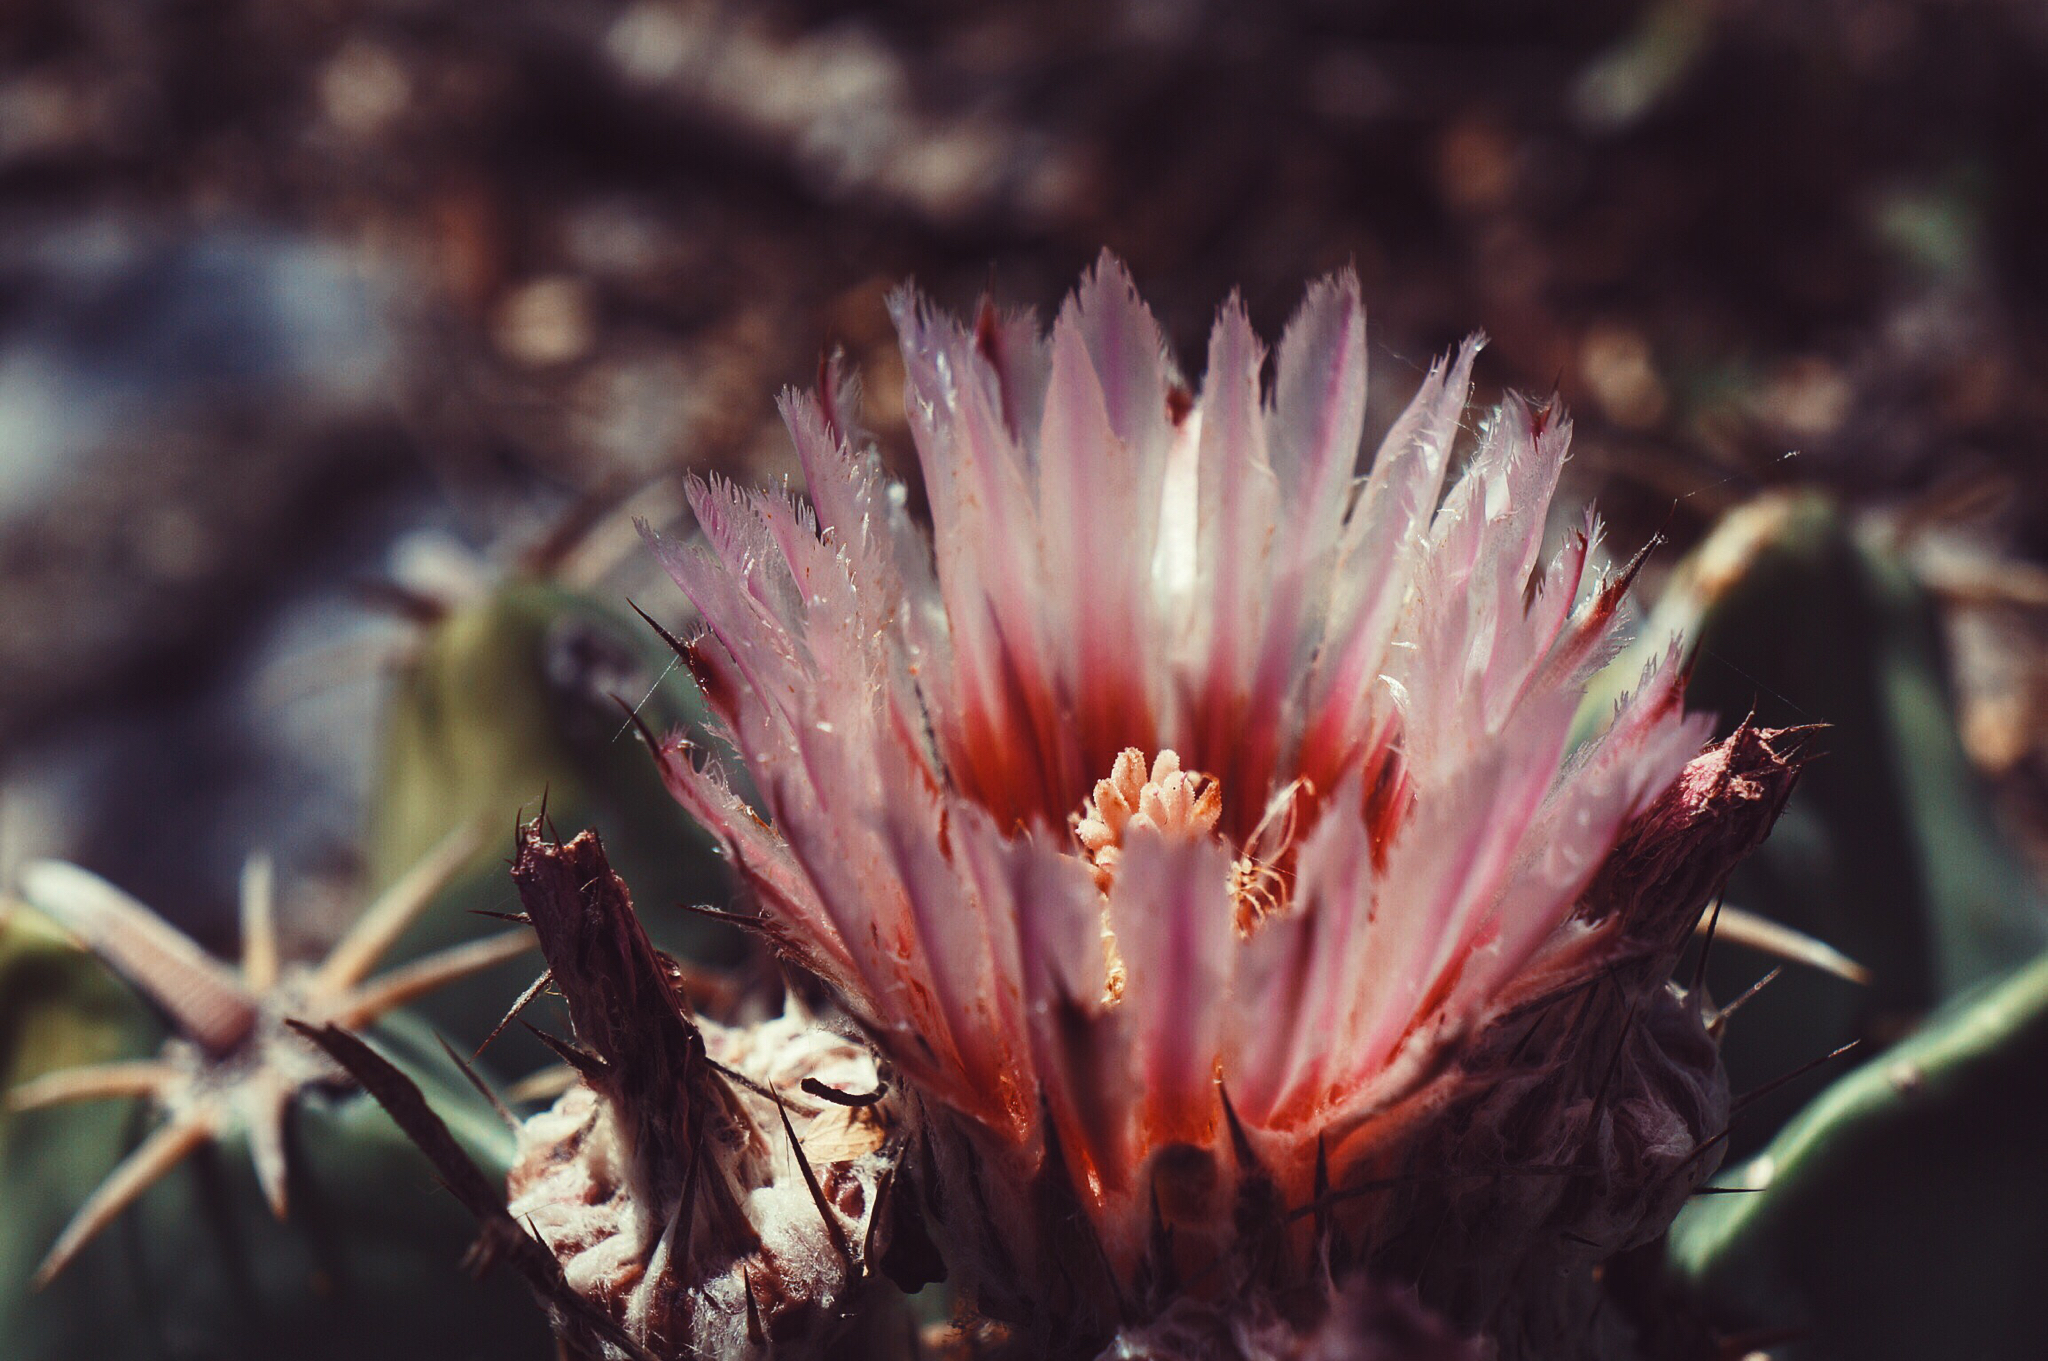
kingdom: Plantae
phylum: Tracheophyta
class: Magnoliopsida
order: Caryophyllales
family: Cactaceae
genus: Echinocactus
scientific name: Echinocactus texensis
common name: Devil's pincushion
